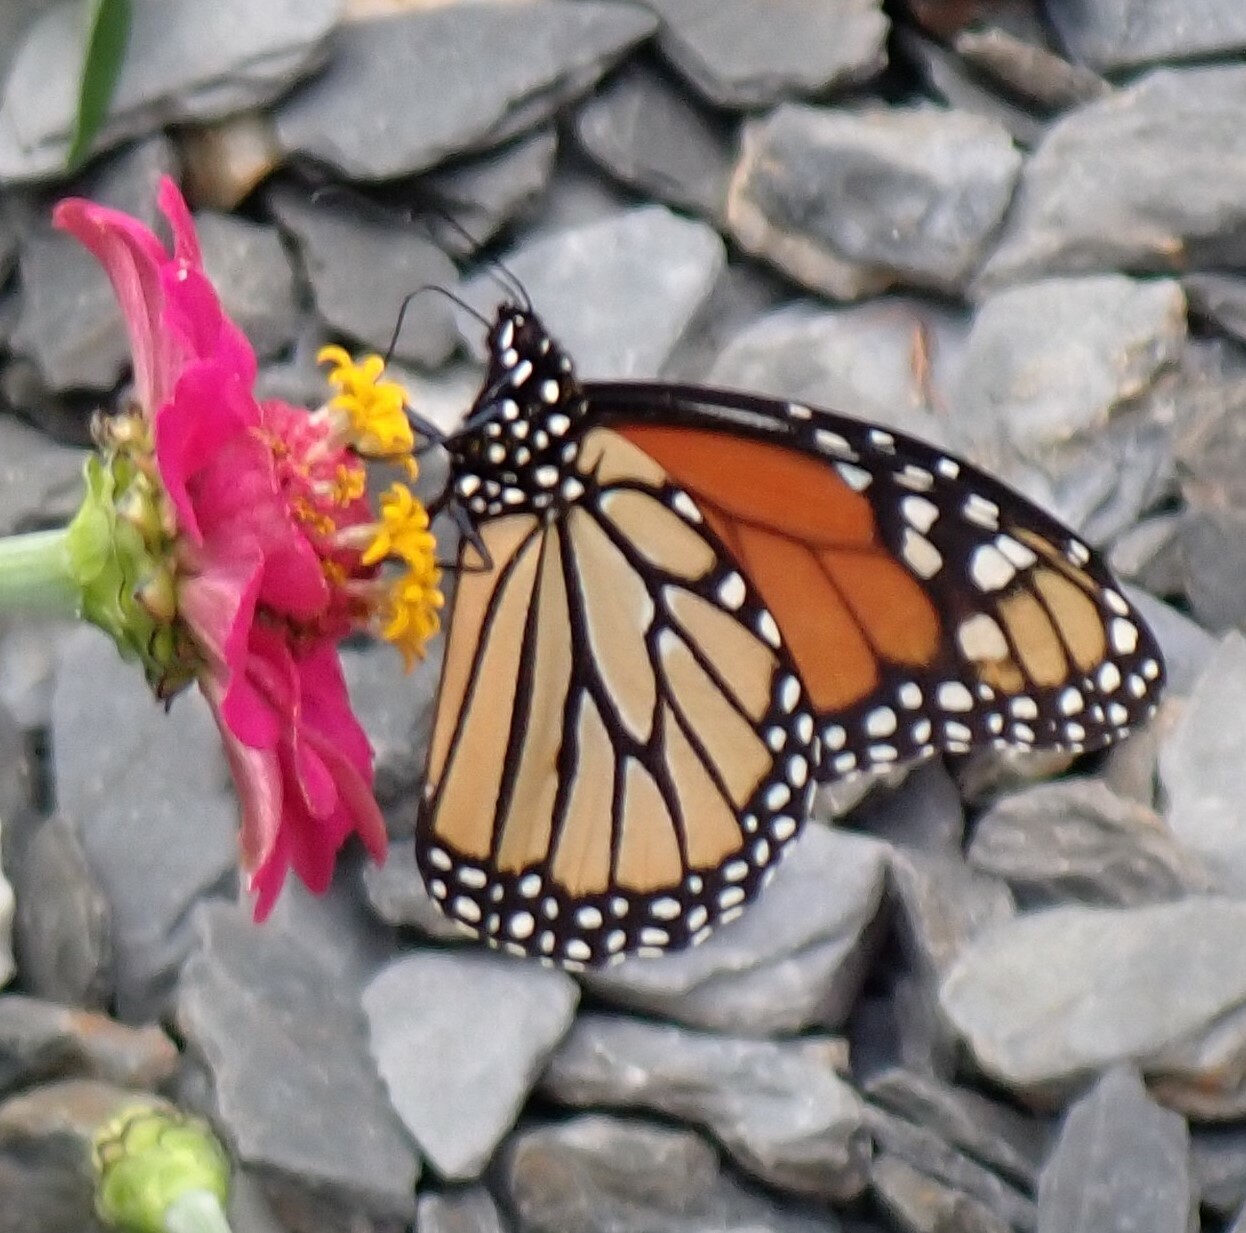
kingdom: Animalia
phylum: Arthropoda
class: Insecta
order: Lepidoptera
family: Nymphalidae
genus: Danaus
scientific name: Danaus plexippus
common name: Monarch
